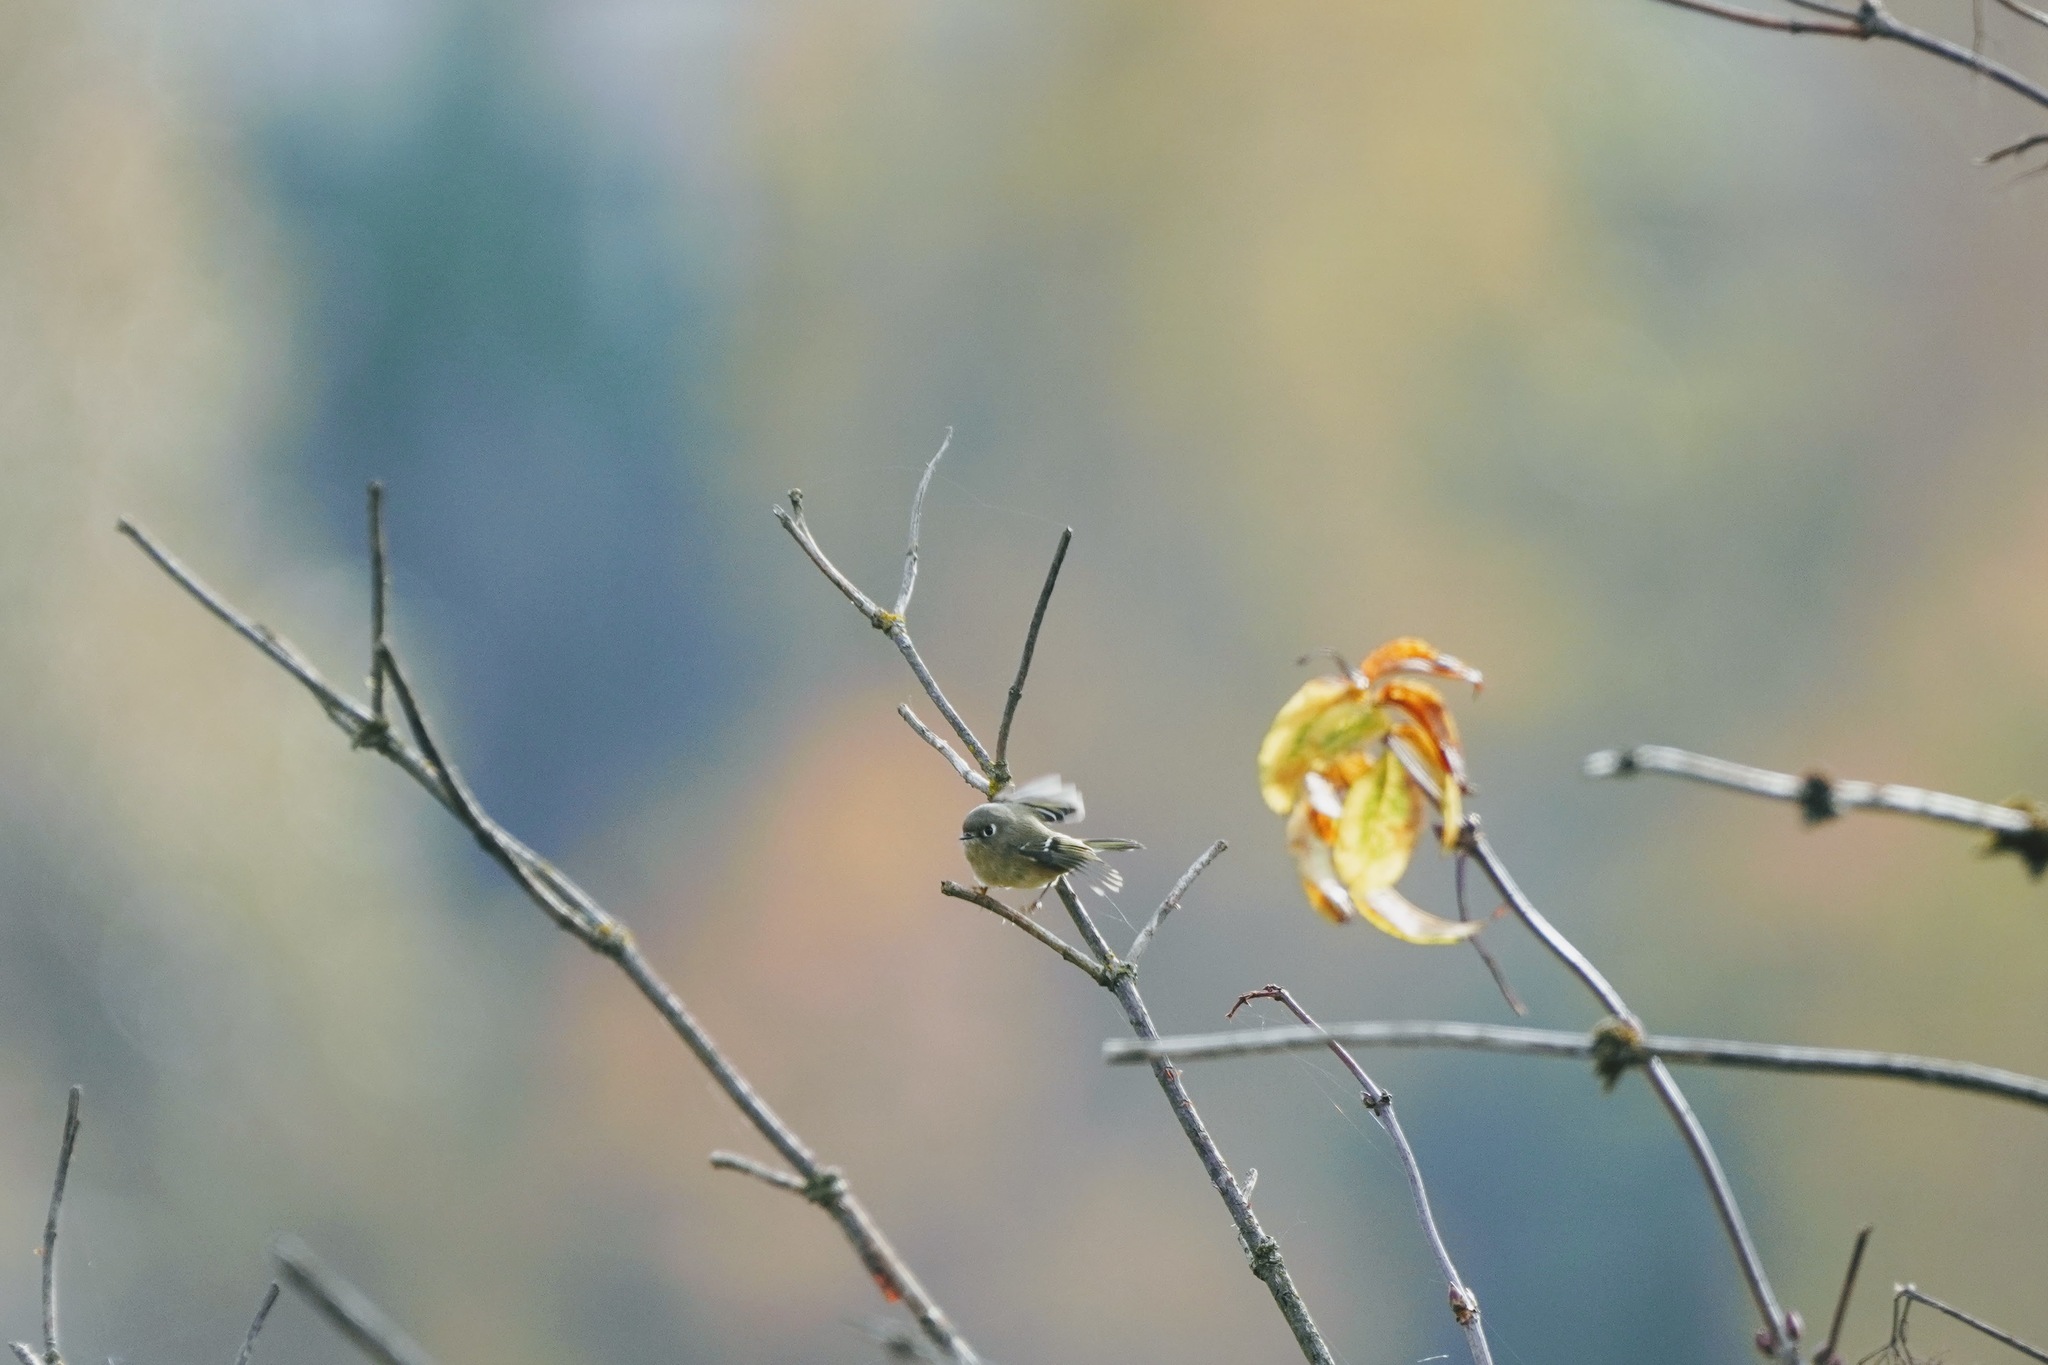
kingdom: Animalia
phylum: Chordata
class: Aves
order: Passeriformes
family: Regulidae
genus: Regulus
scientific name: Regulus calendula
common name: Ruby-crowned kinglet
